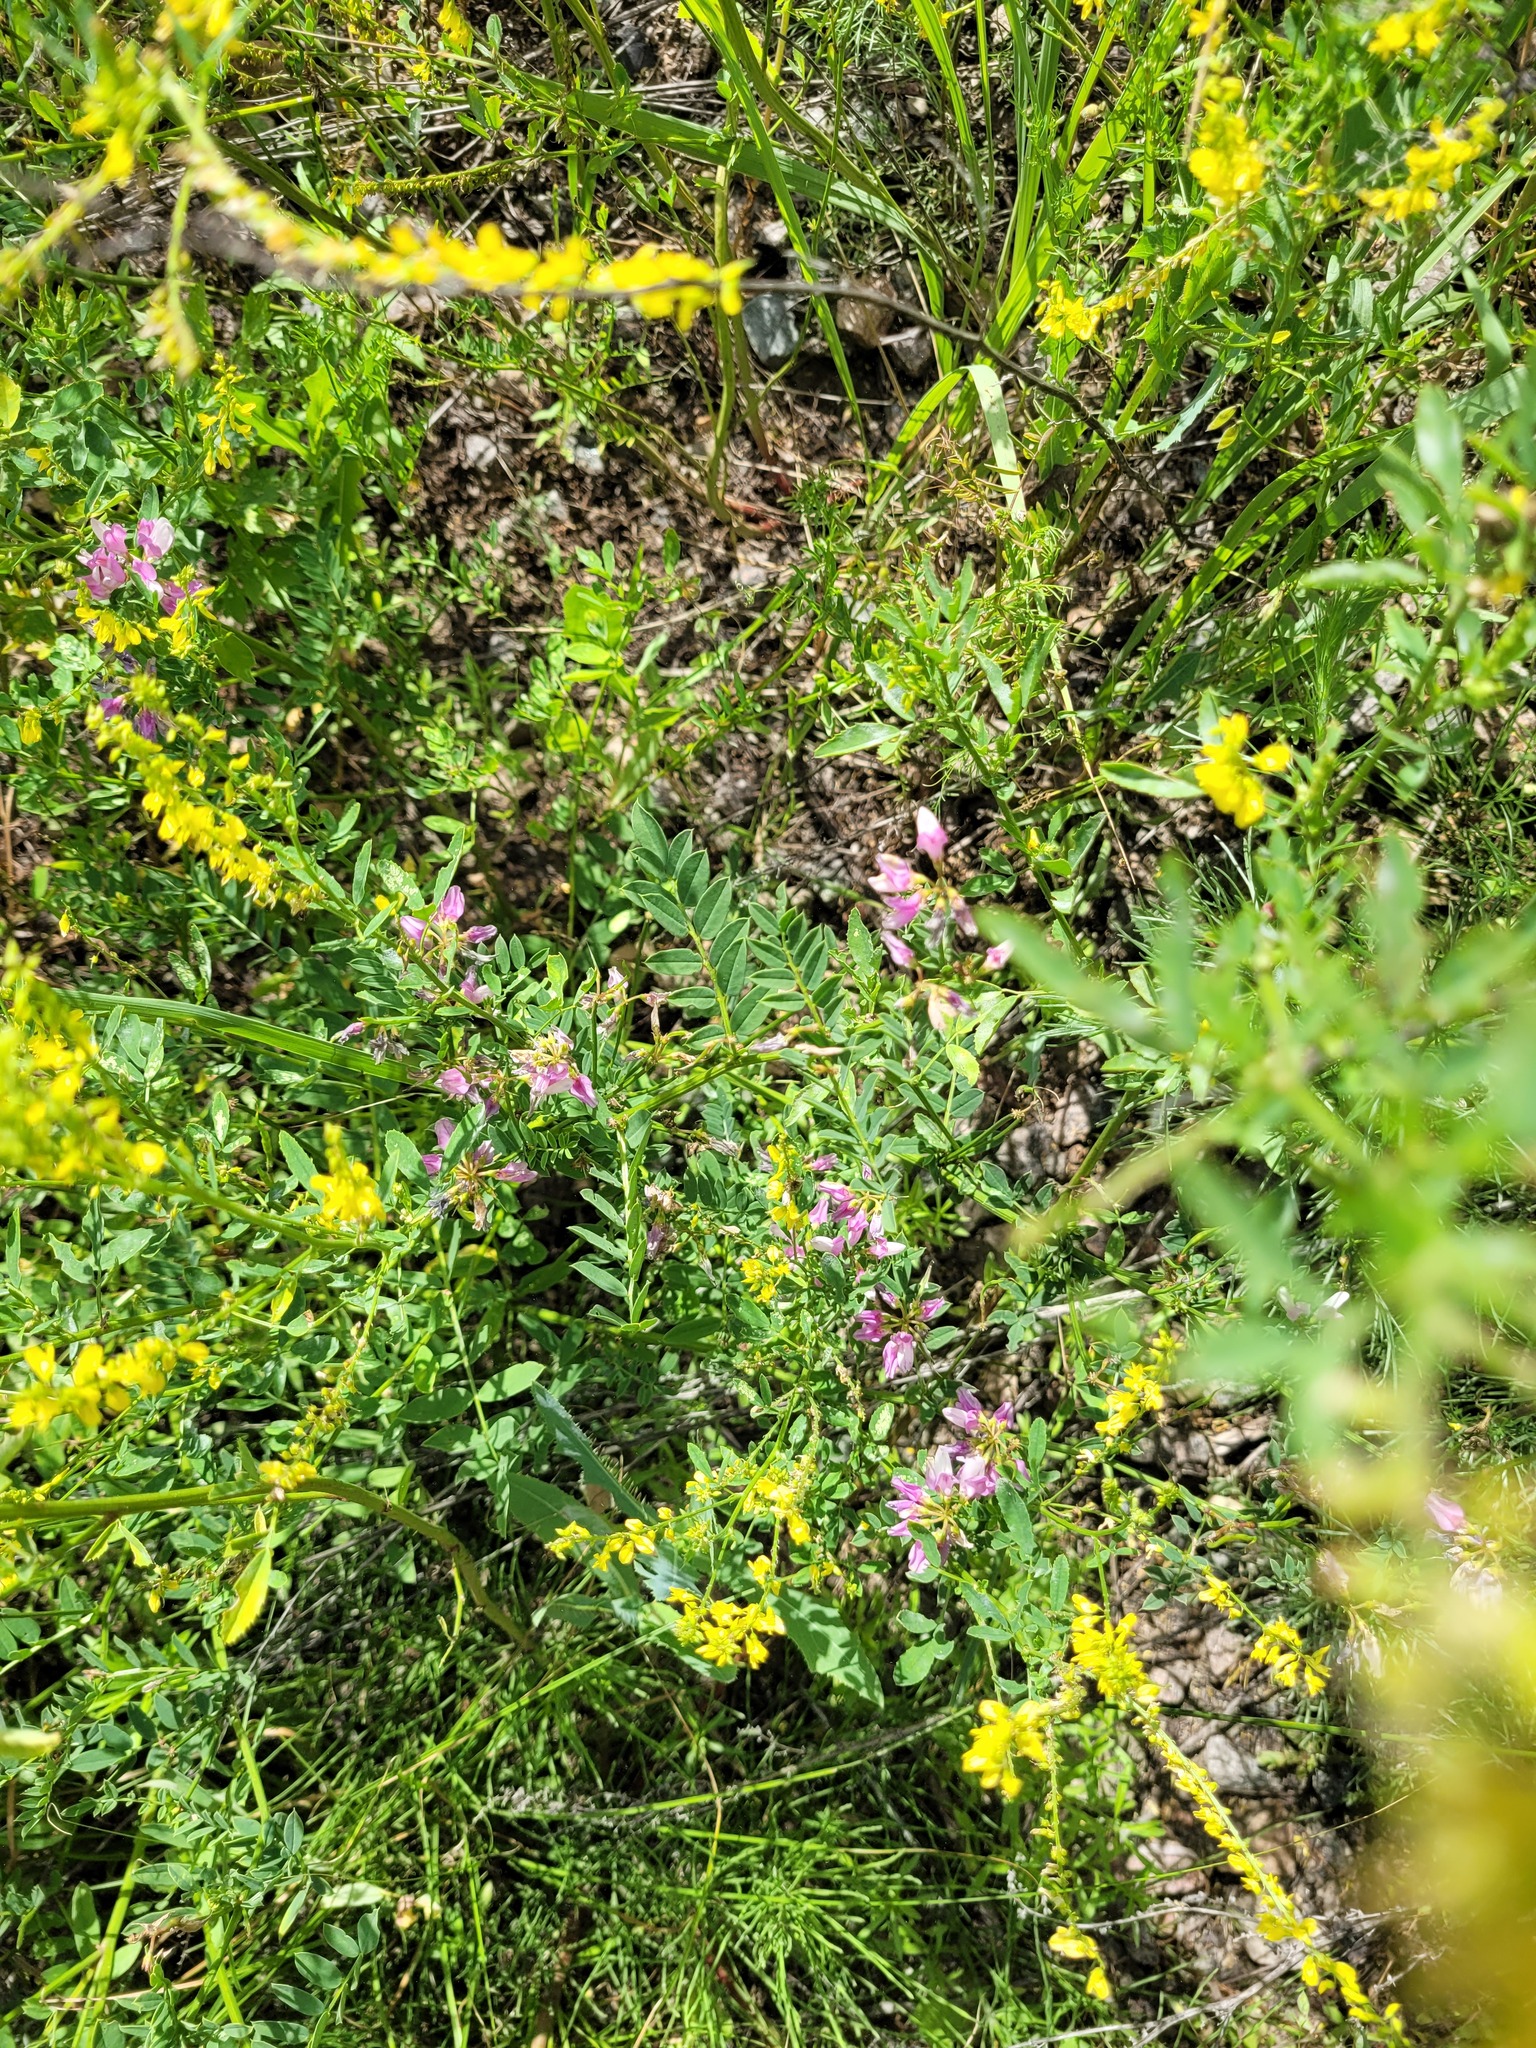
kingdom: Plantae
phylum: Tracheophyta
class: Magnoliopsida
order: Fabales
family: Fabaceae
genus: Coronilla
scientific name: Coronilla varia
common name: Crownvetch
